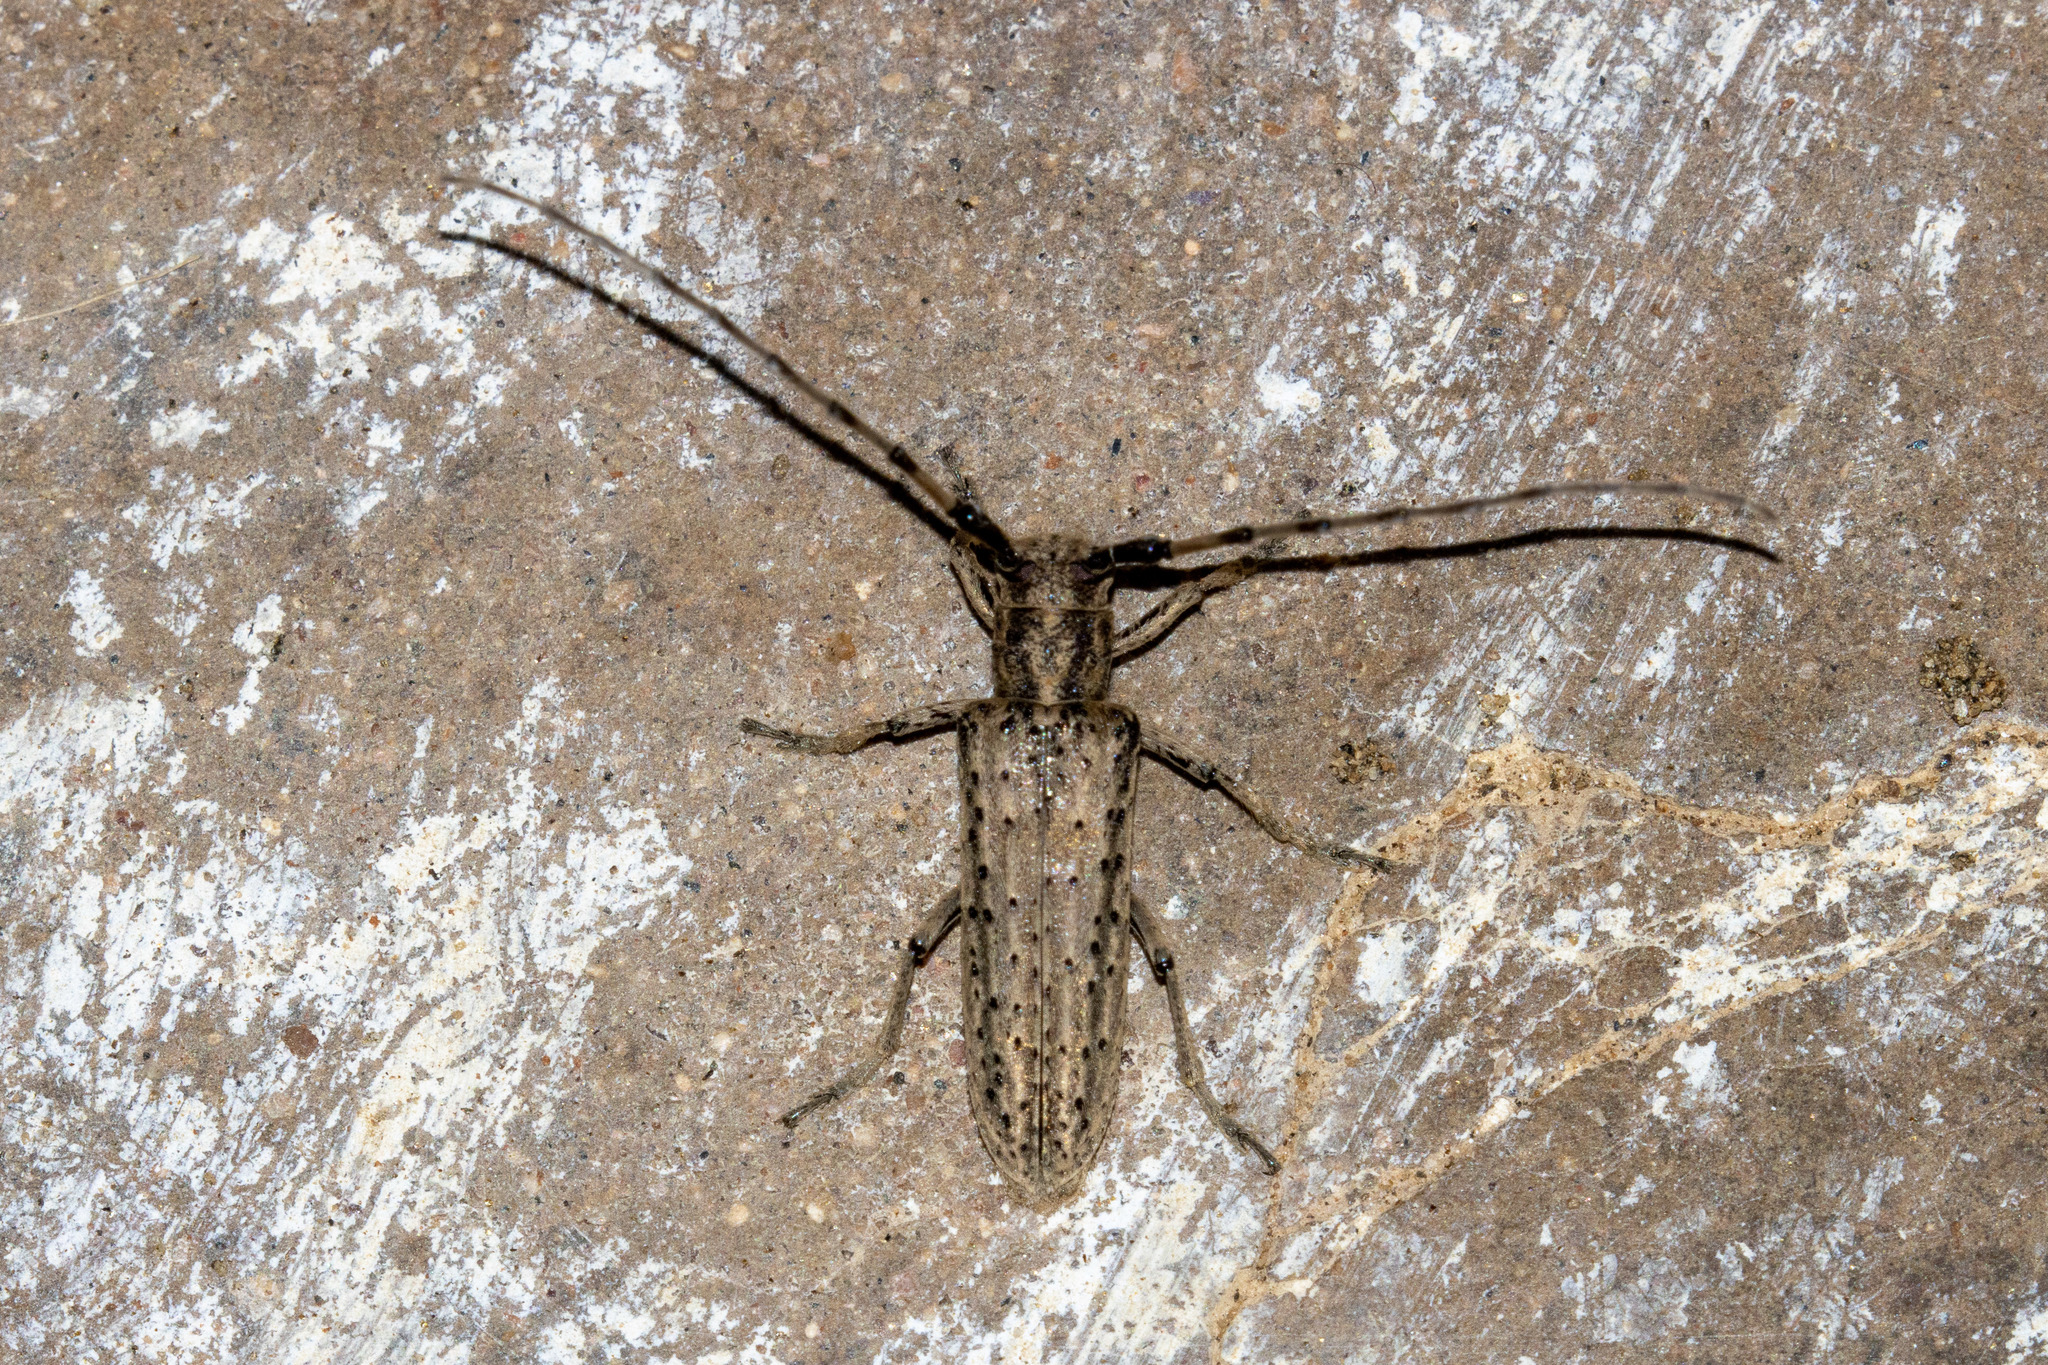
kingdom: Animalia
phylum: Arthropoda
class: Insecta
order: Coleoptera
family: Cerambycidae
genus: Pseudophaula
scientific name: Pseudophaula porosa
